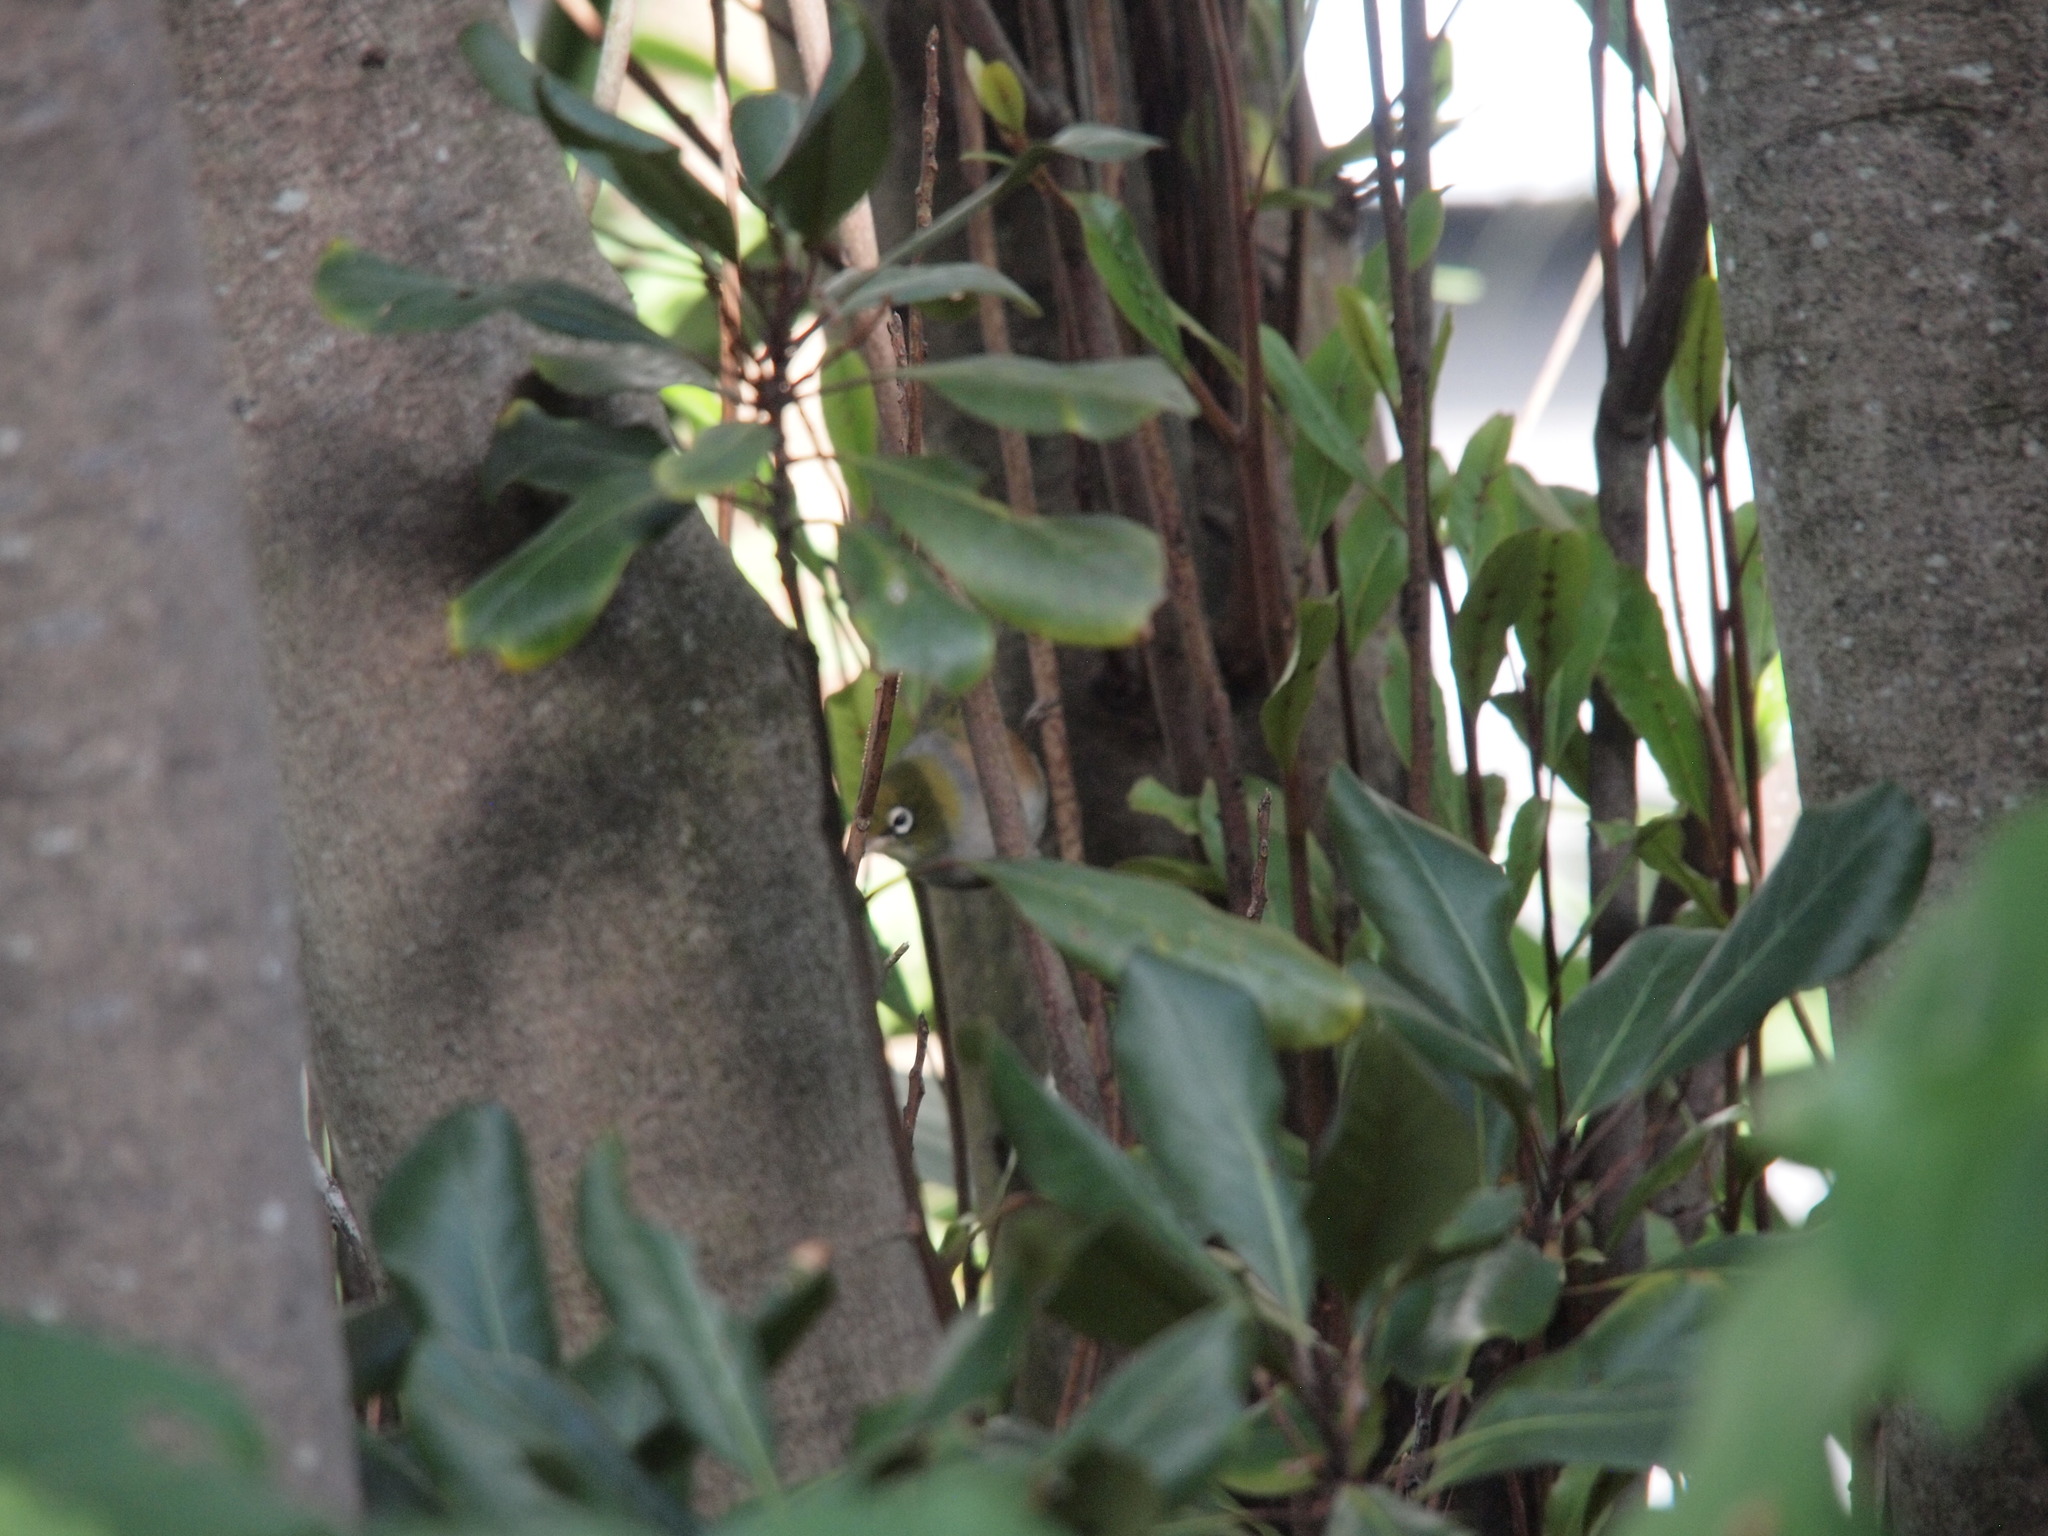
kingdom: Animalia
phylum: Chordata
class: Aves
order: Passeriformes
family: Zosteropidae
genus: Zosterops
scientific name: Zosterops lateralis
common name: Silvereye
